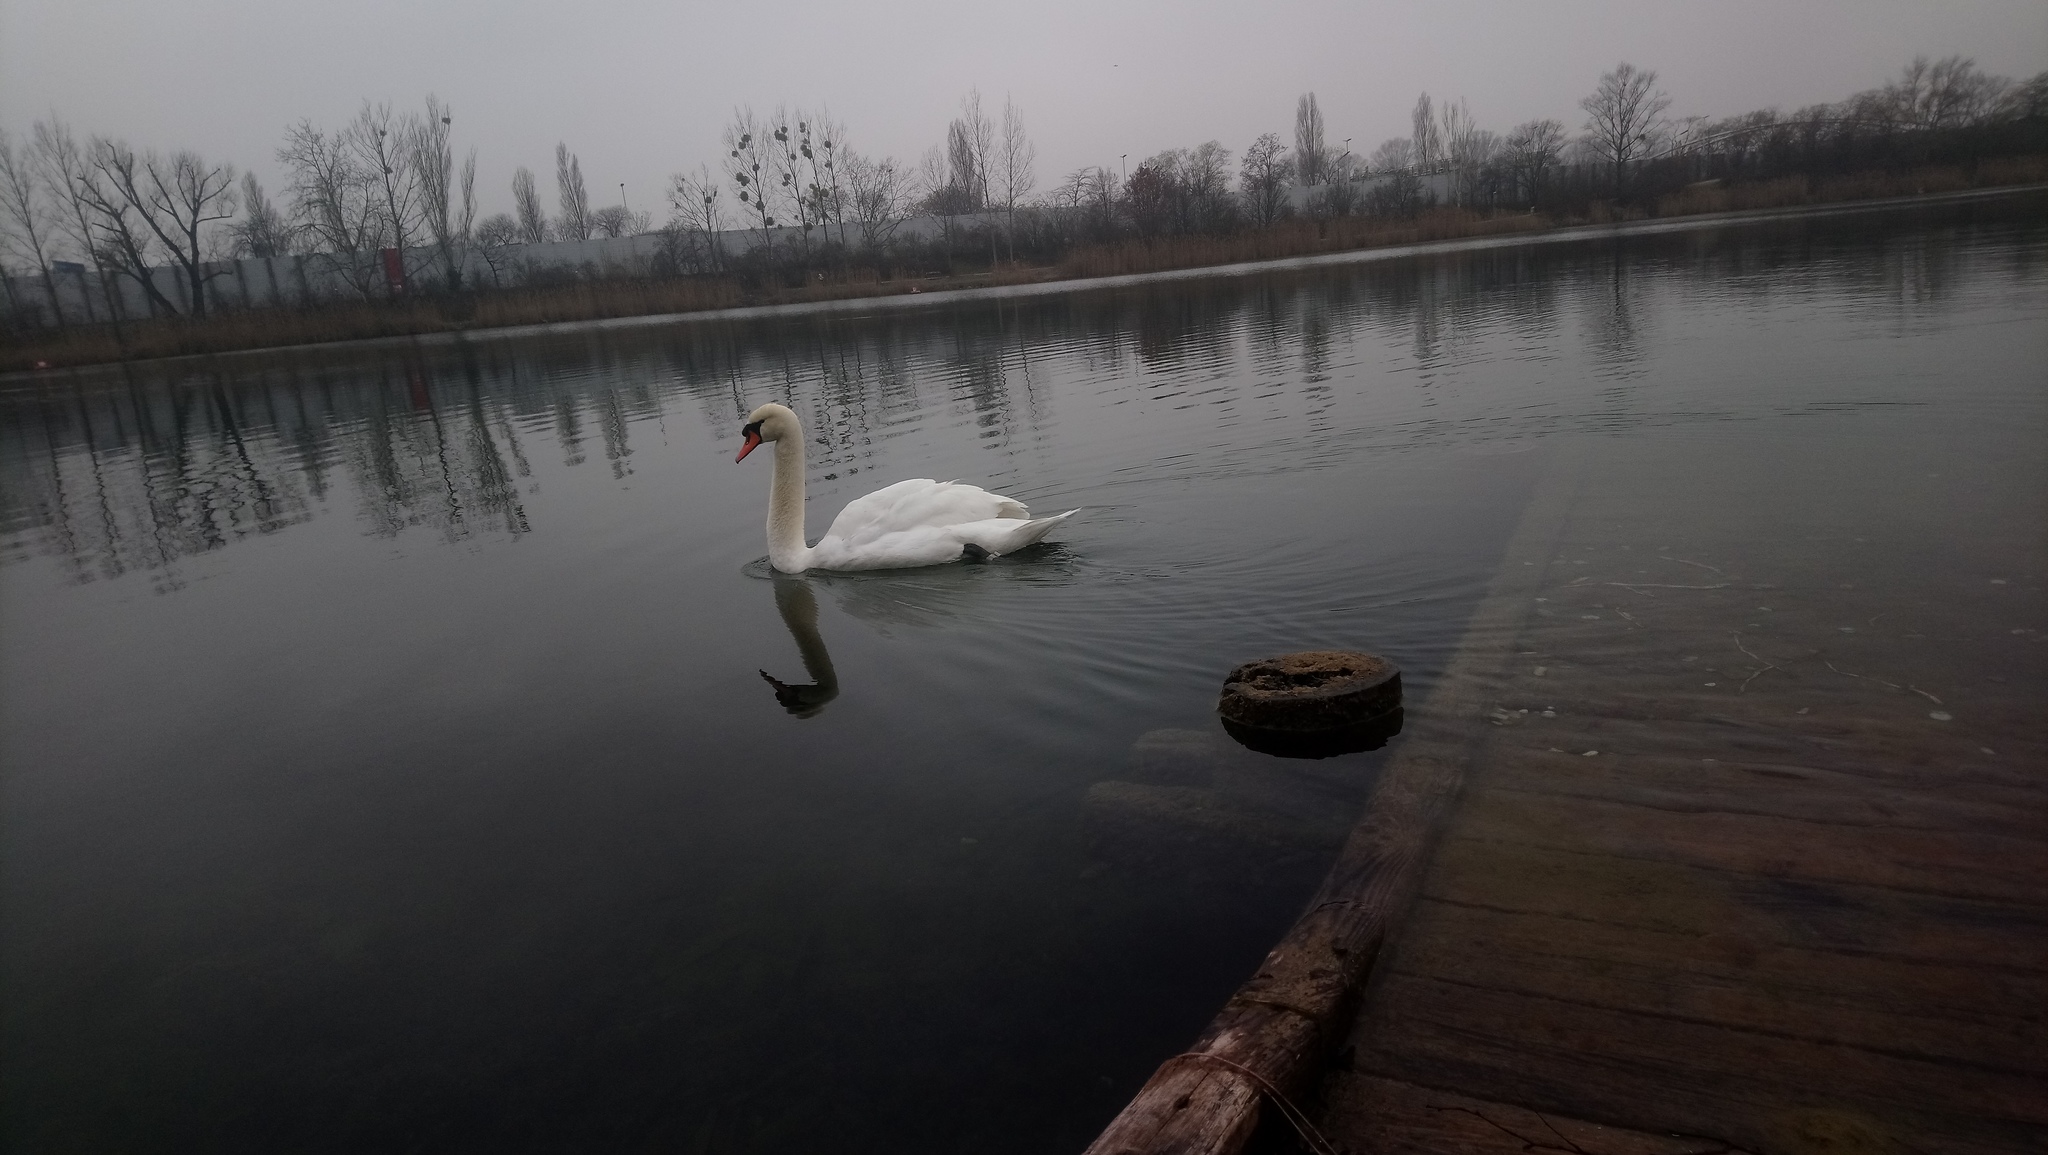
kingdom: Animalia
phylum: Chordata
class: Aves
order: Anseriformes
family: Anatidae
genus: Cygnus
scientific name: Cygnus olor
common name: Mute swan
